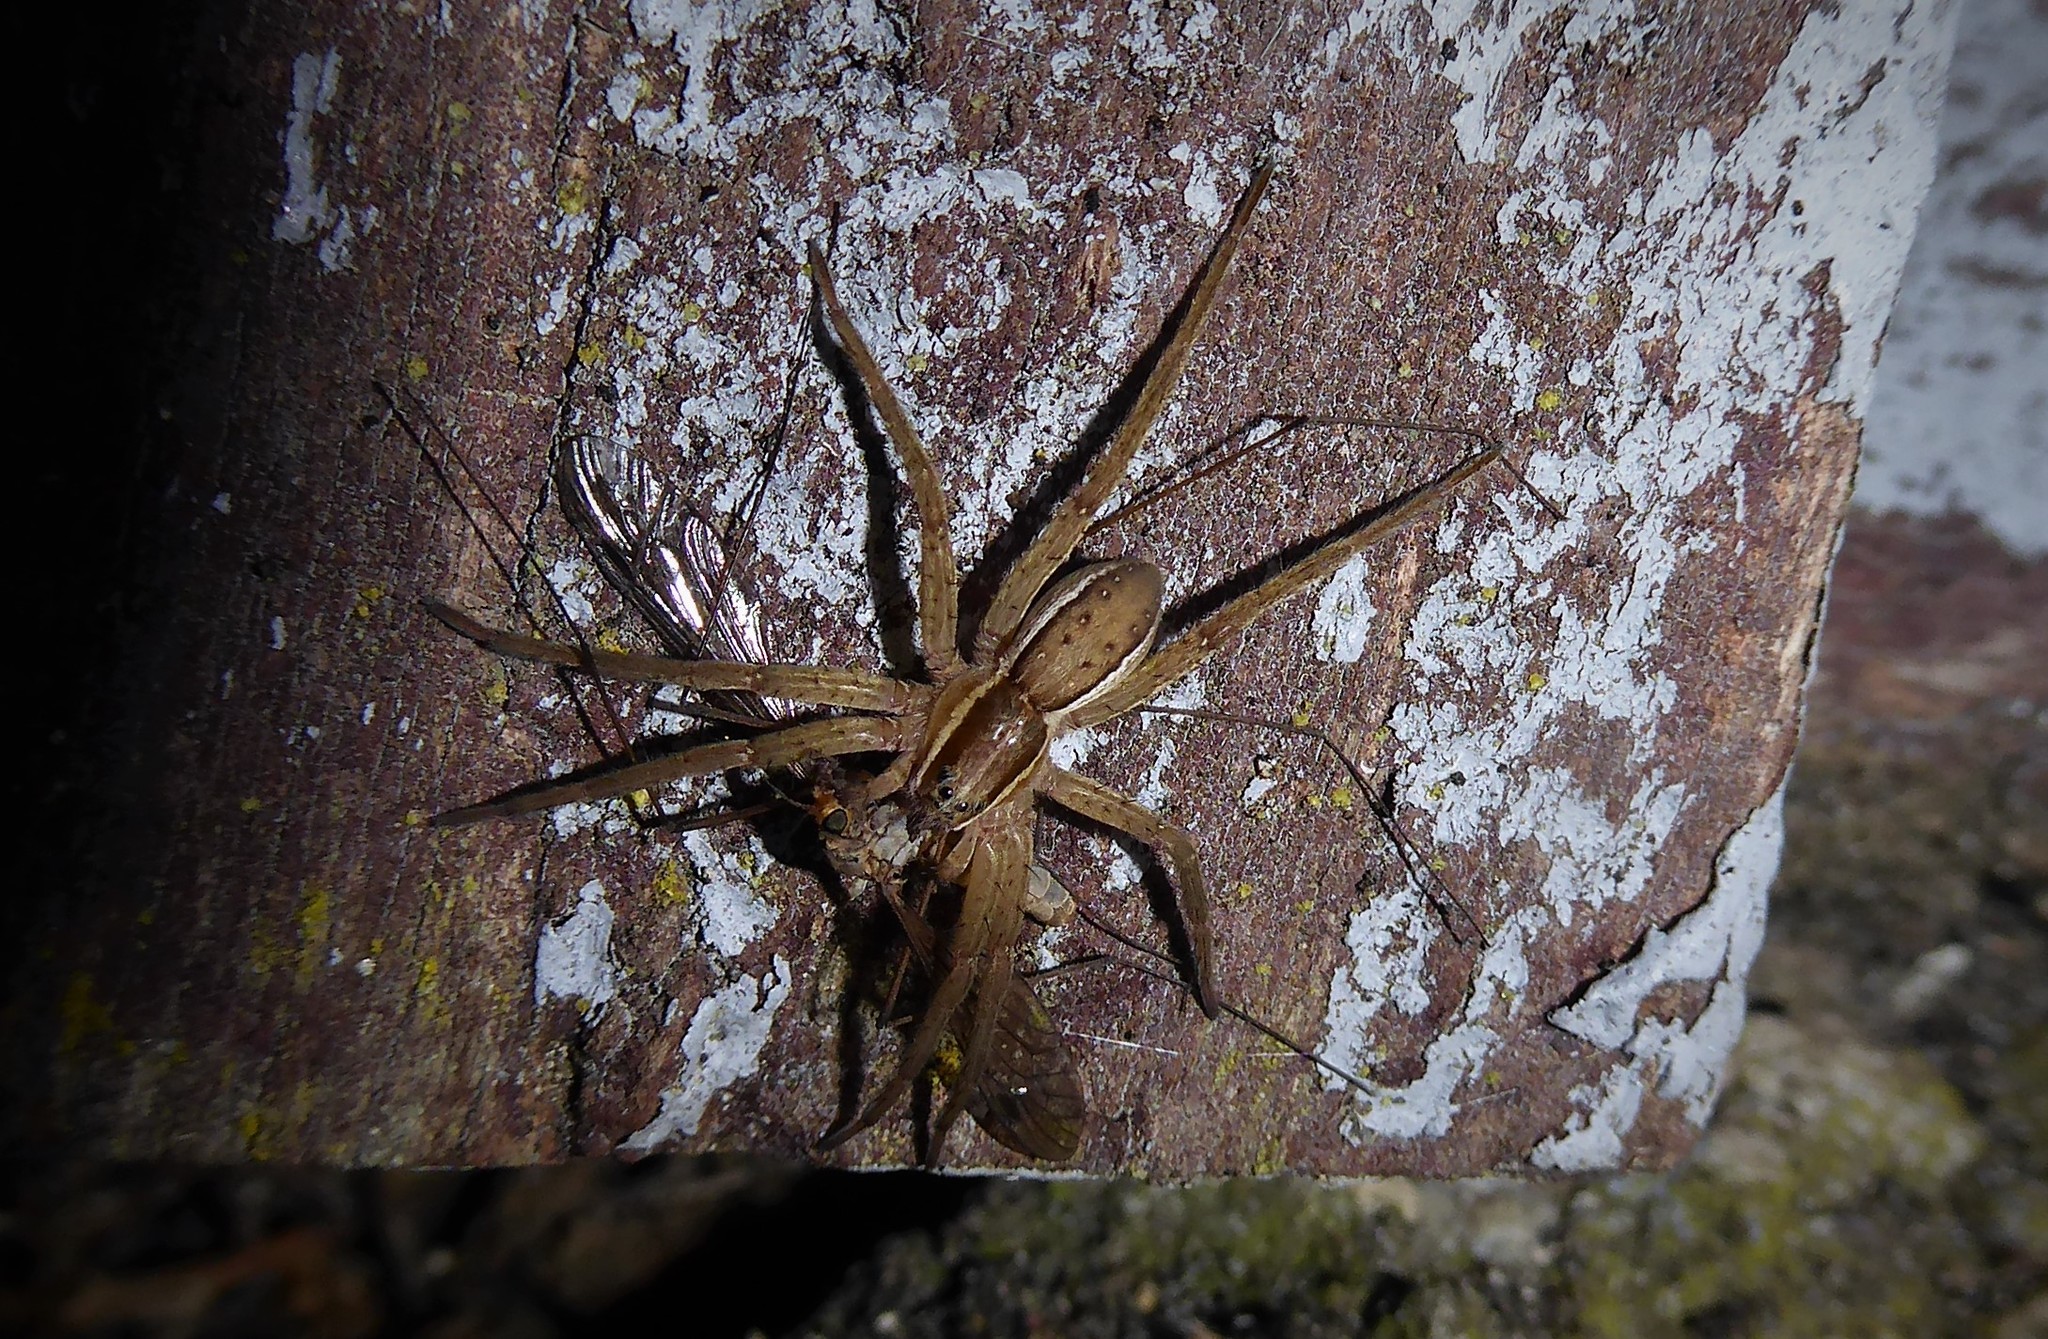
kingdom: Animalia
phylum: Arthropoda
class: Arachnida
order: Araneae
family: Pisauridae
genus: Dolomedes
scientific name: Dolomedes minor
